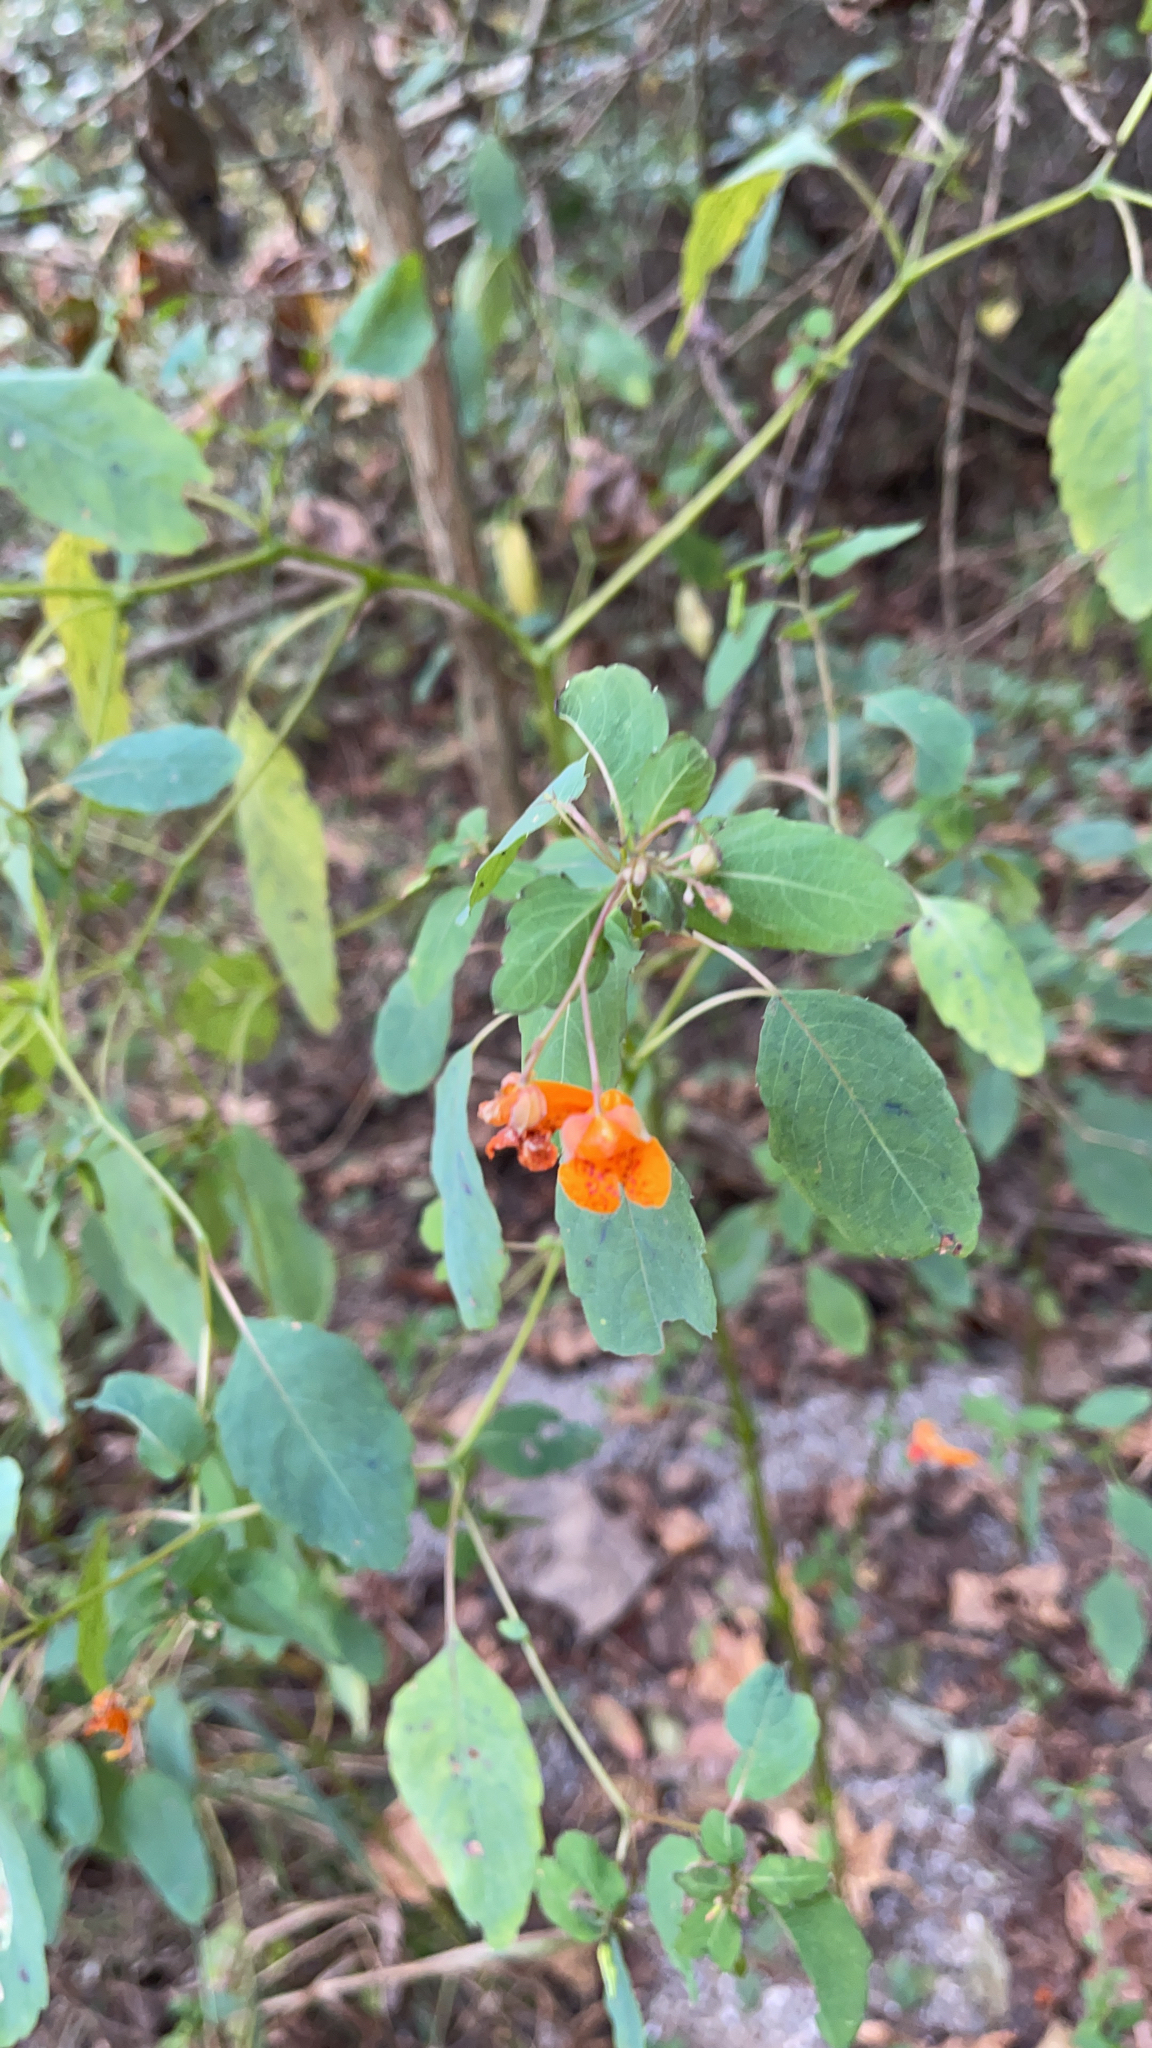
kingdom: Plantae
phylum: Tracheophyta
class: Magnoliopsida
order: Ericales
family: Balsaminaceae
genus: Impatiens
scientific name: Impatiens capensis
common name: Orange balsam
